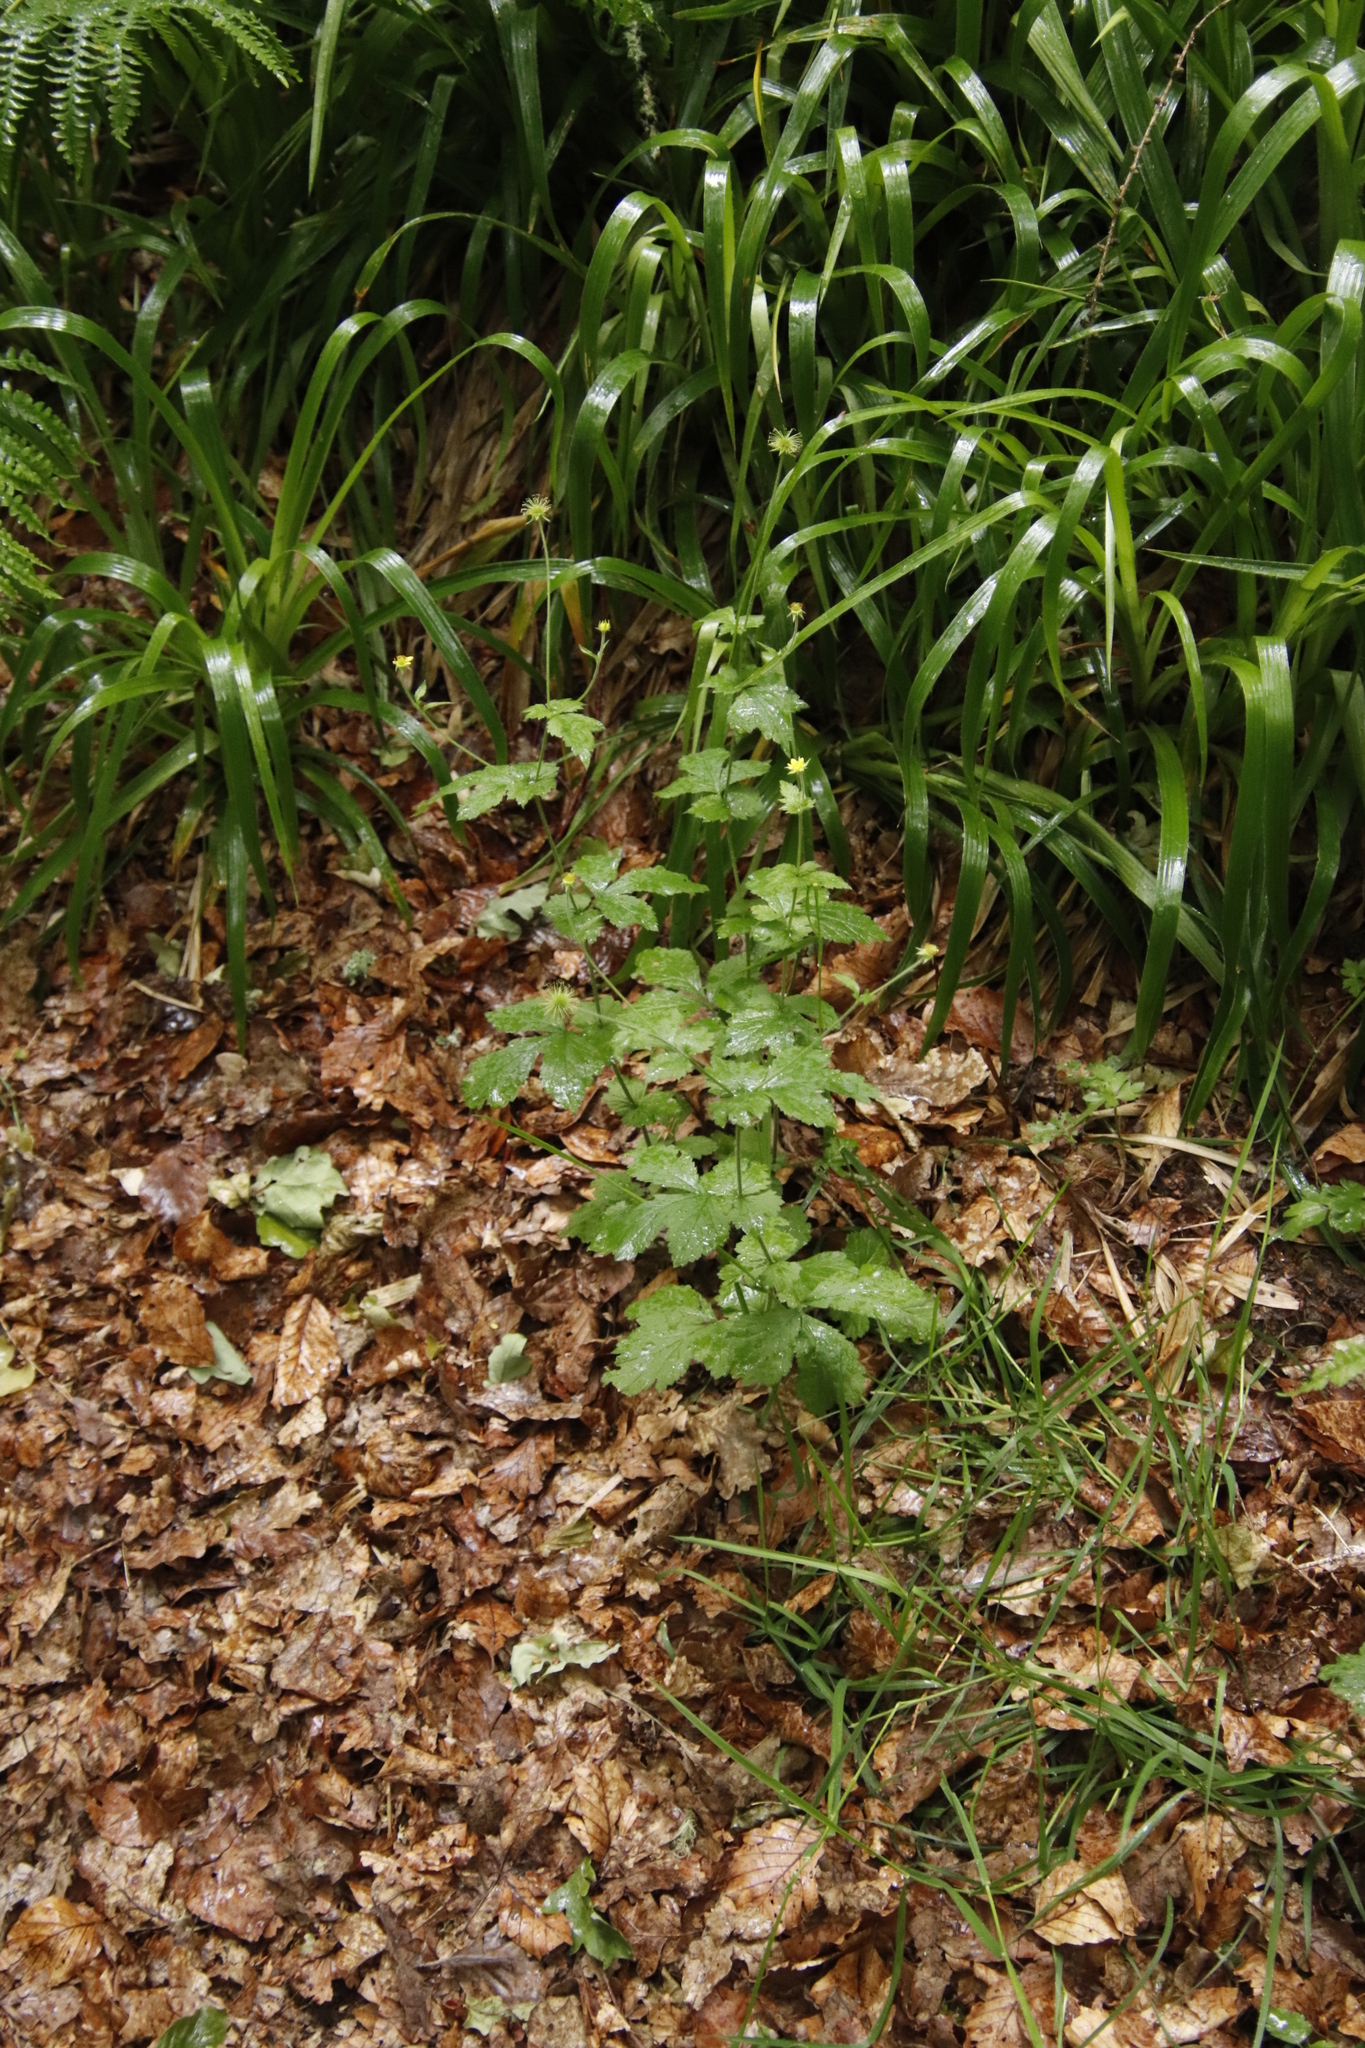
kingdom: Plantae
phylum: Tracheophyta
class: Magnoliopsida
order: Rosales
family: Rosaceae
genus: Geum
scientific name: Geum urbanum
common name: Wood avens
